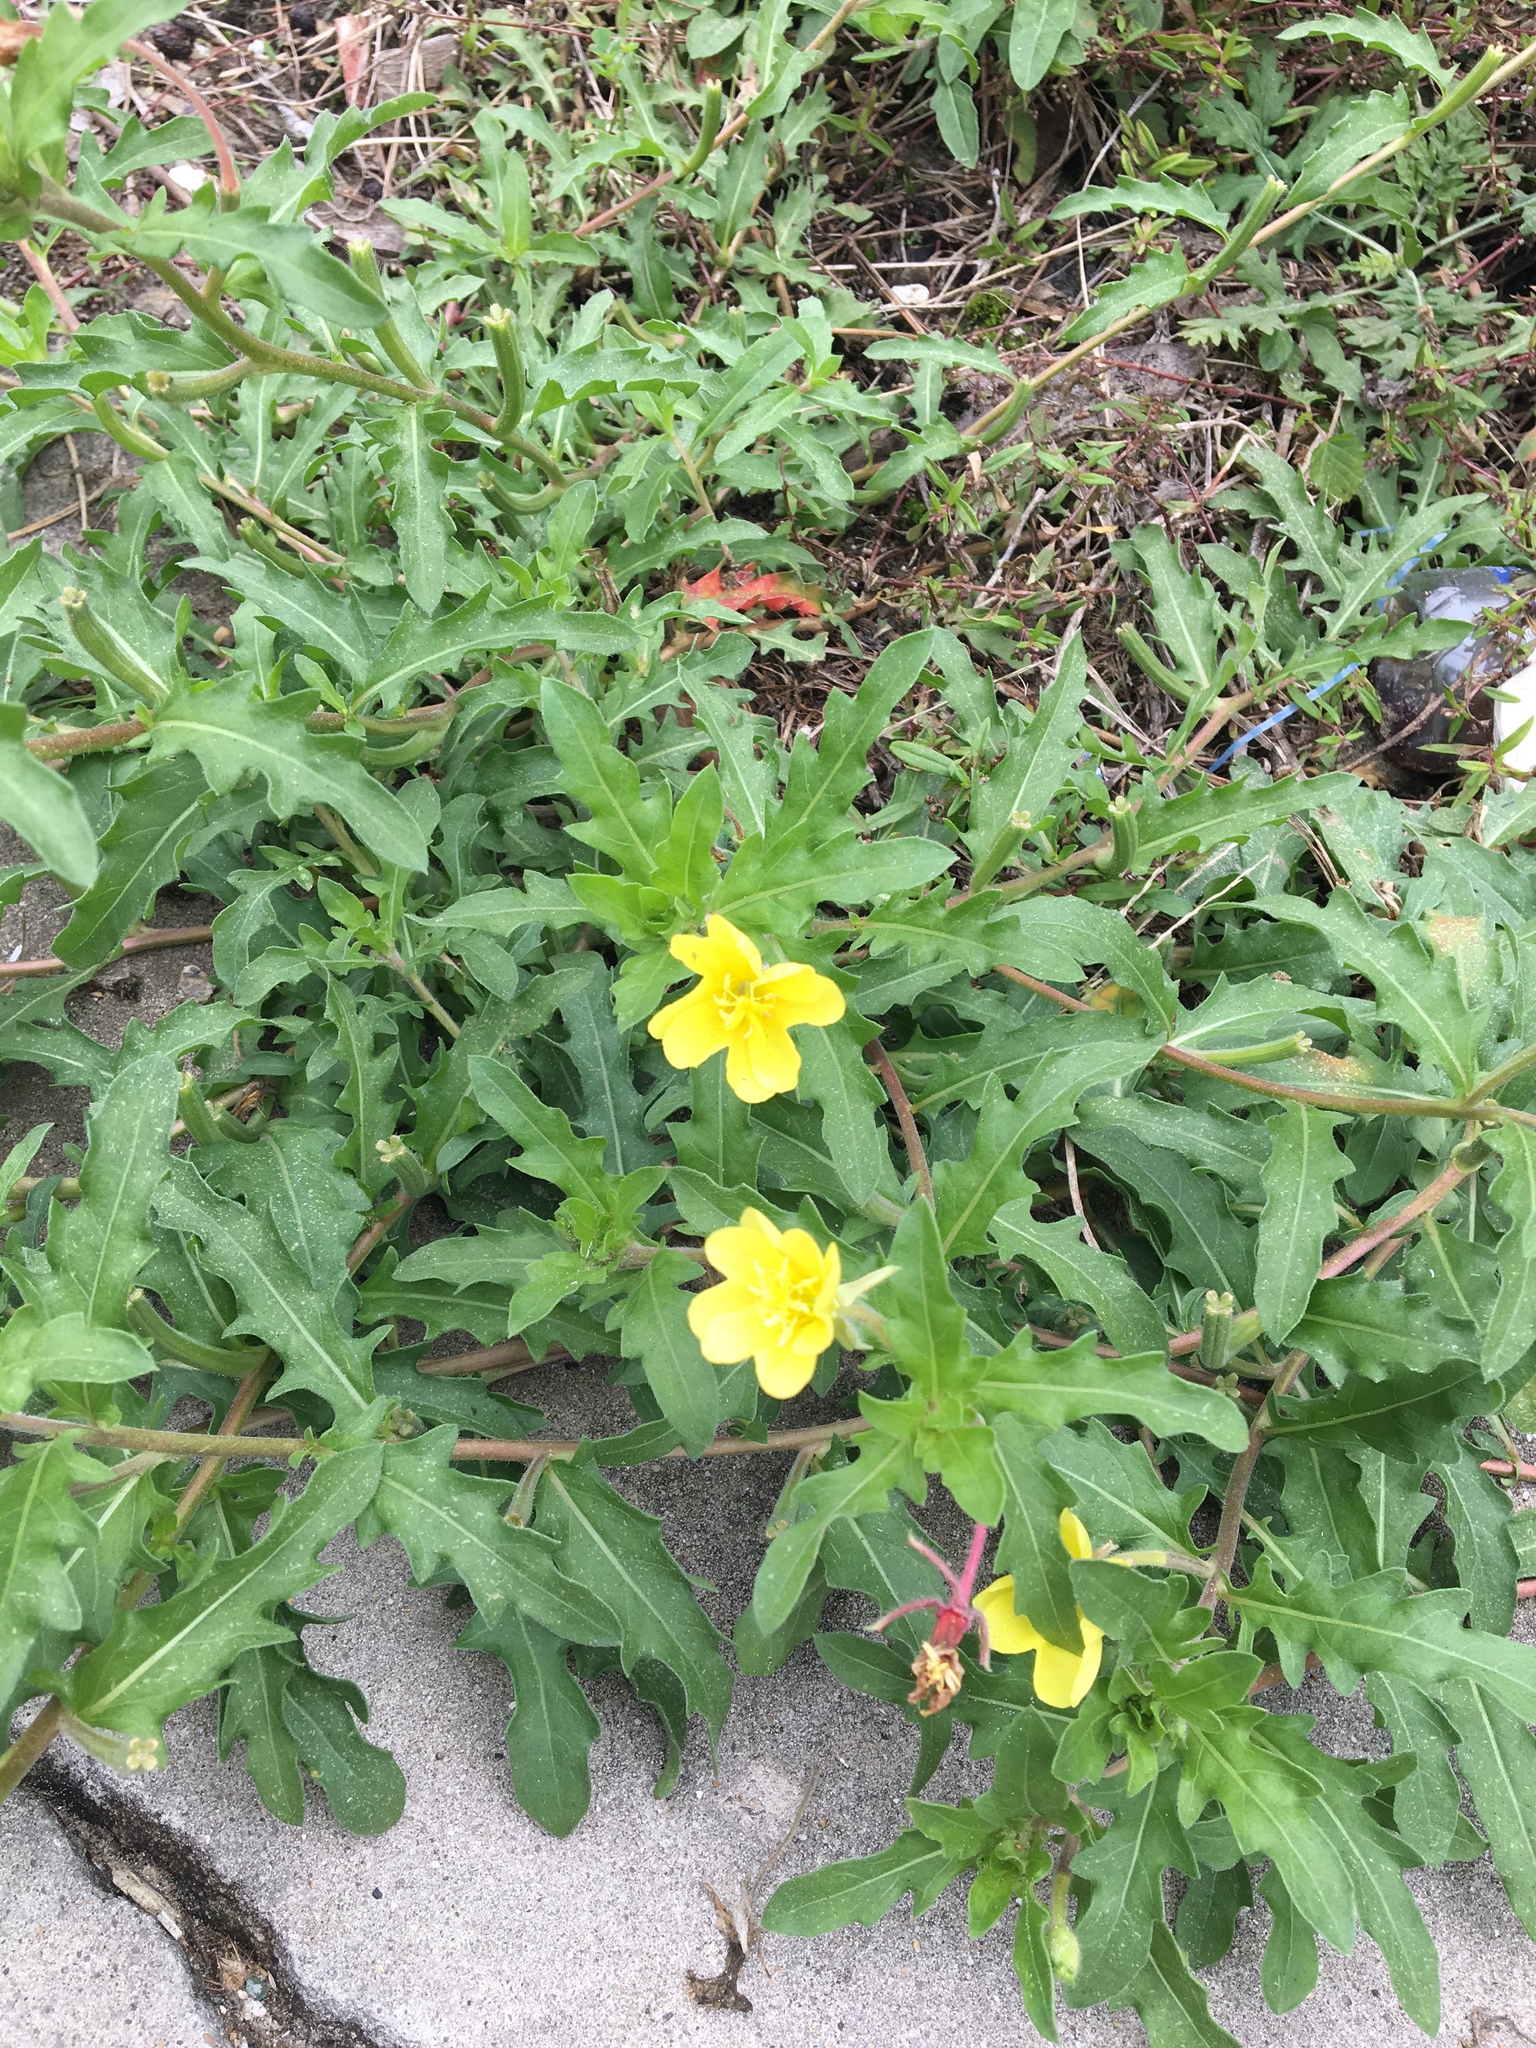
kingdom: Plantae
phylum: Tracheophyta
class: Magnoliopsida
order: Myrtales
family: Onagraceae
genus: Oenothera
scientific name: Oenothera laciniata
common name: Cut-leaved evening-primrose
